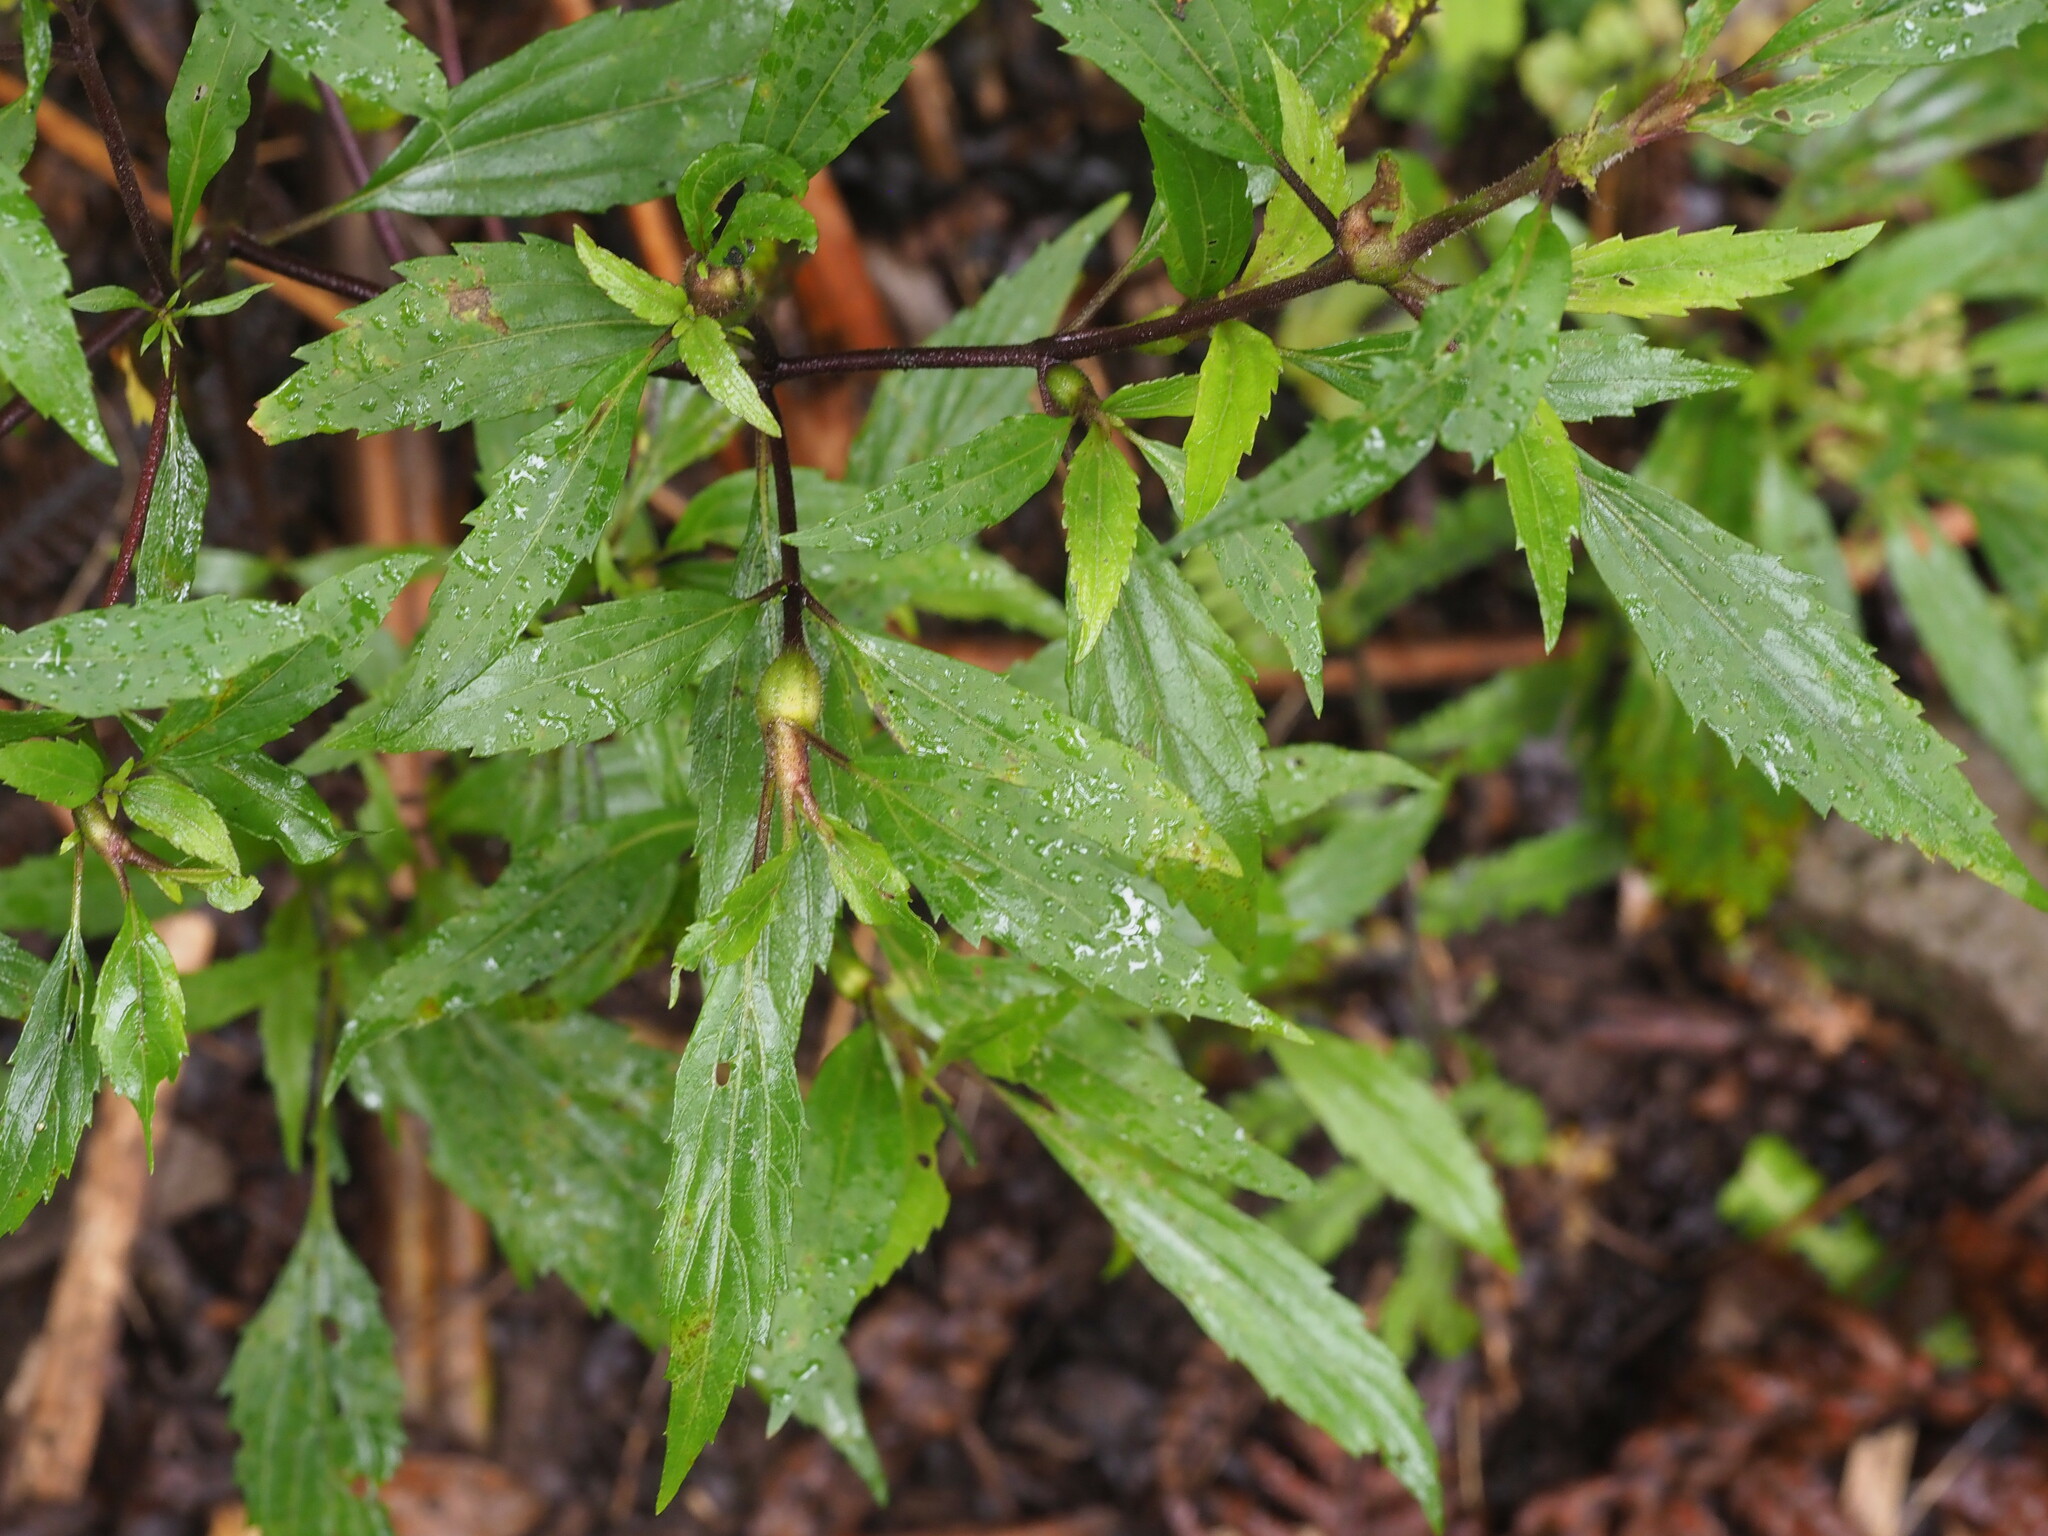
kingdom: Plantae
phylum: Tracheophyta
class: Magnoliopsida
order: Asterales
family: Asteraceae
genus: Ageratina
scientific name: Ageratina riparia
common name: Creeping croftonweed
